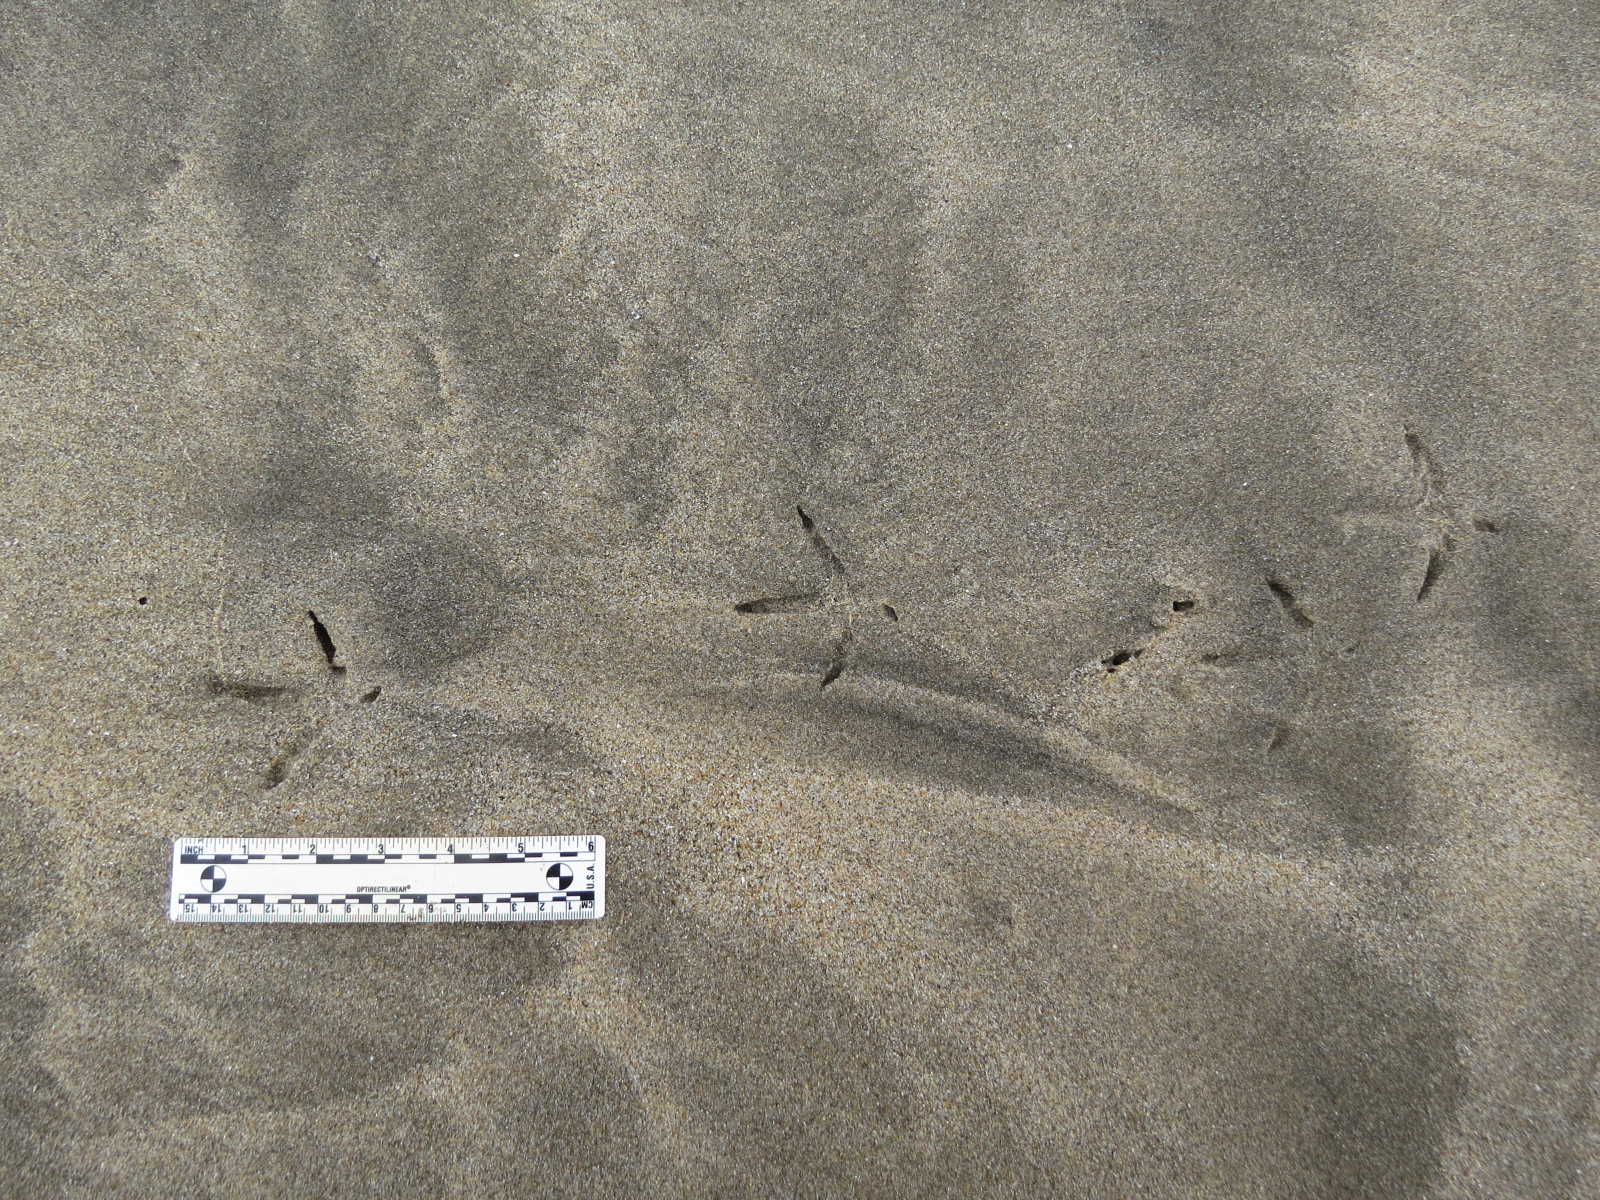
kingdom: Animalia
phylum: Chordata
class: Aves
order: Charadriiformes
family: Scolopacidae
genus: Limosa
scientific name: Limosa fedoa
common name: Marbled godwit
